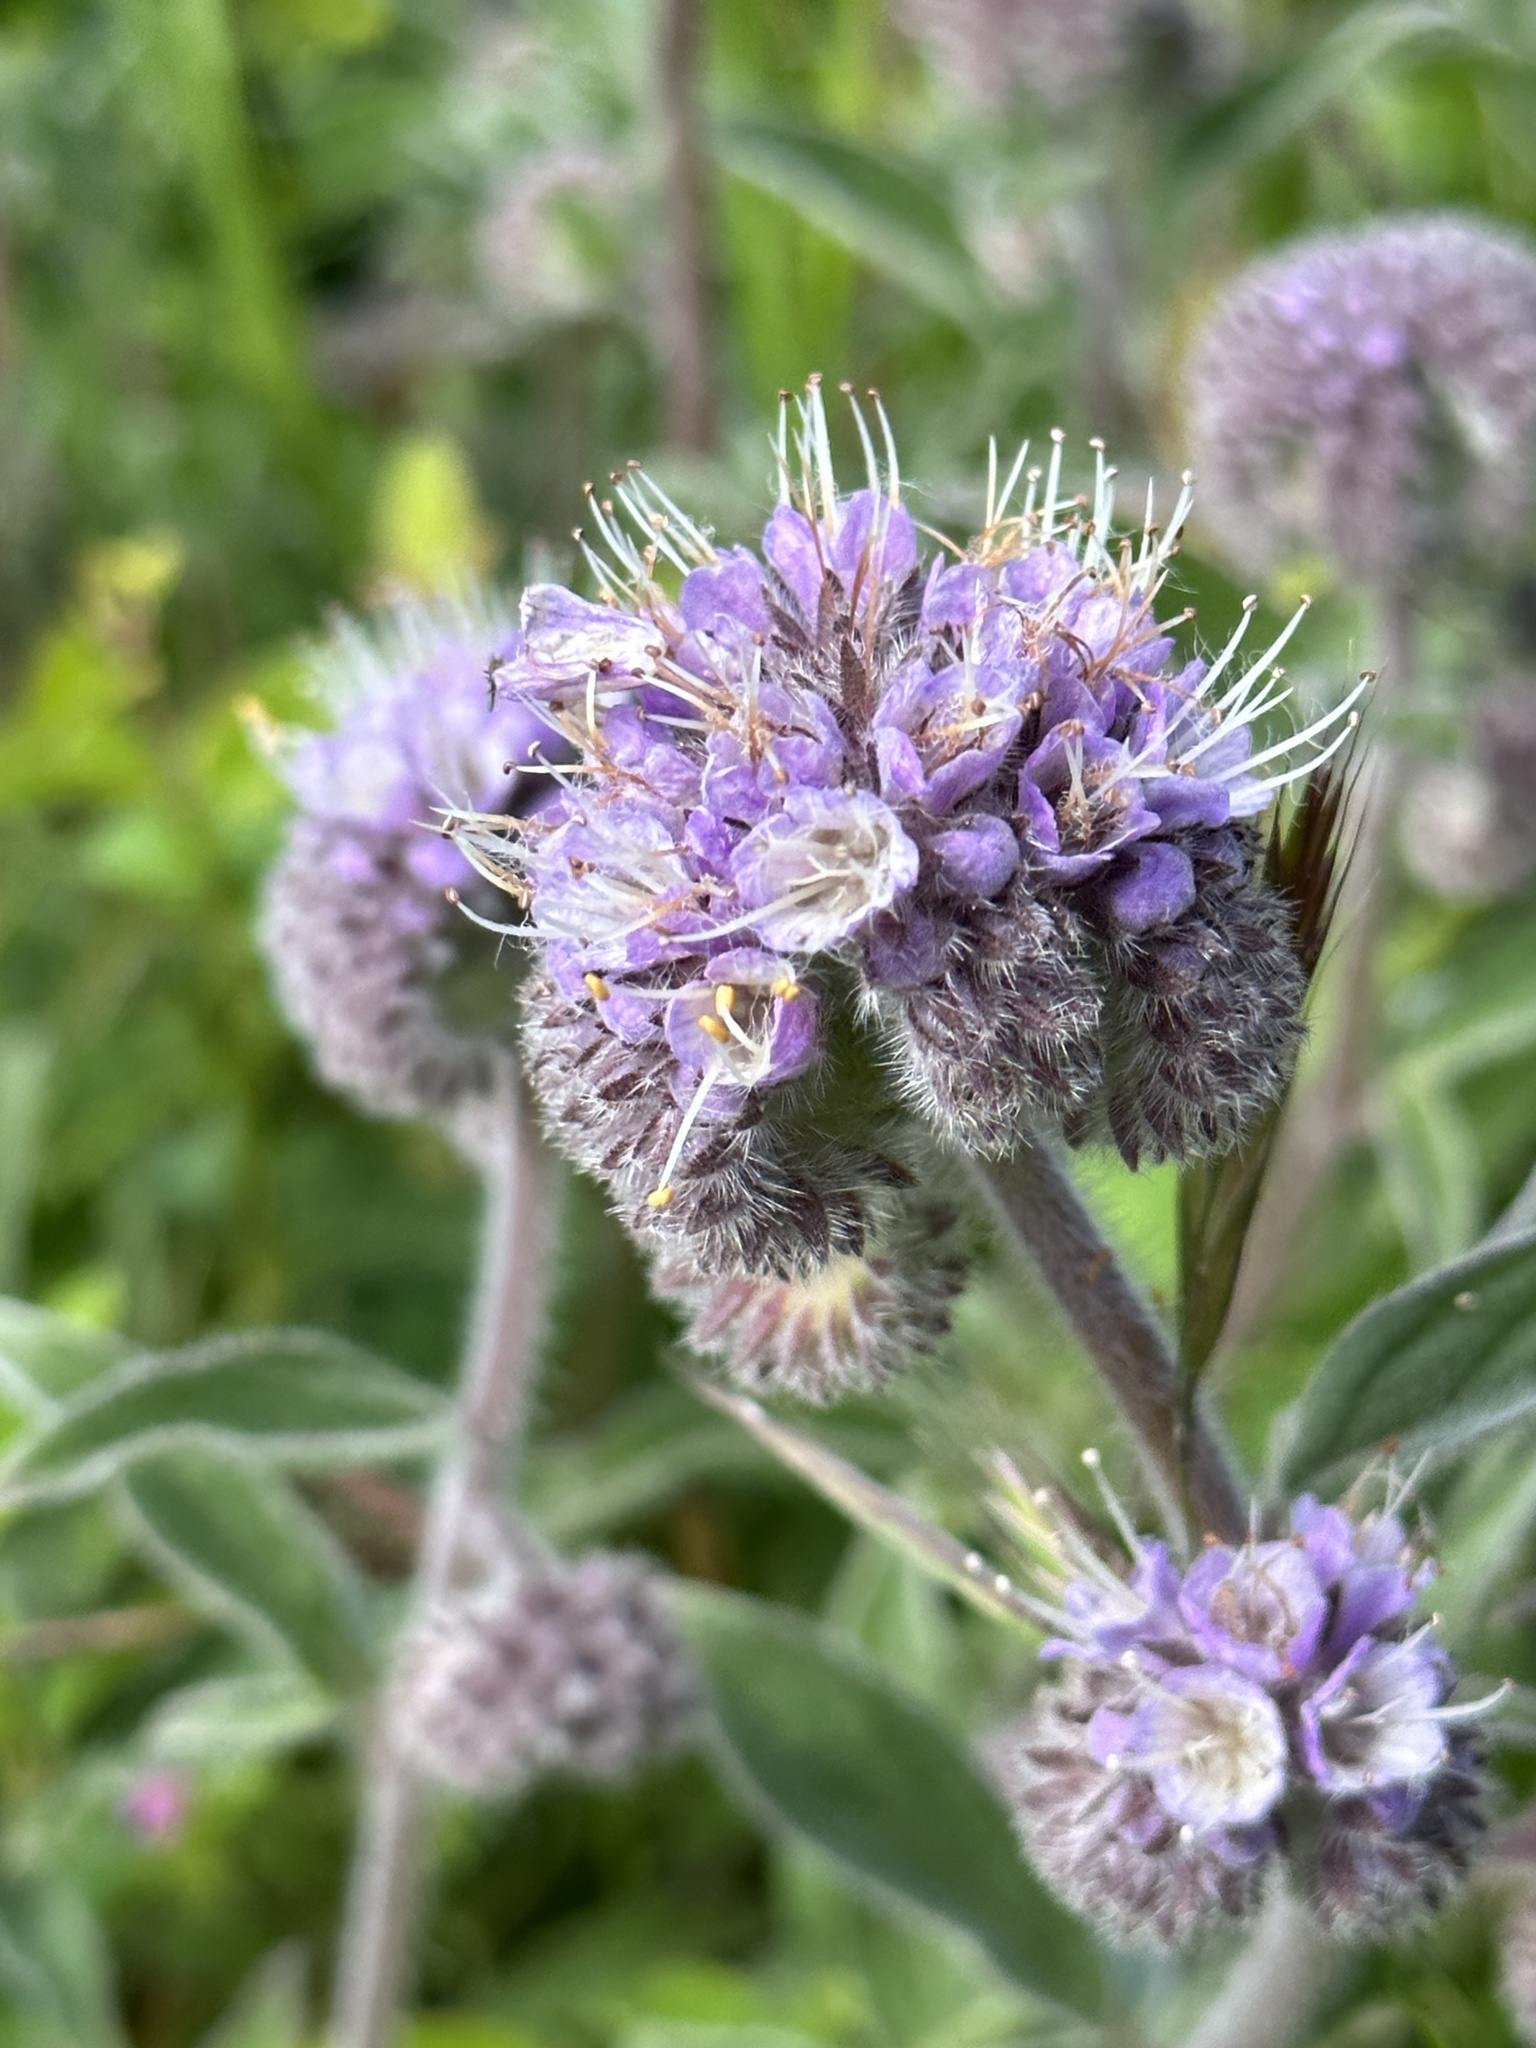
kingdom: Plantae
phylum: Tracheophyta
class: Magnoliopsida
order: Boraginales
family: Hydrophyllaceae
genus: Phacelia
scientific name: Phacelia californica
